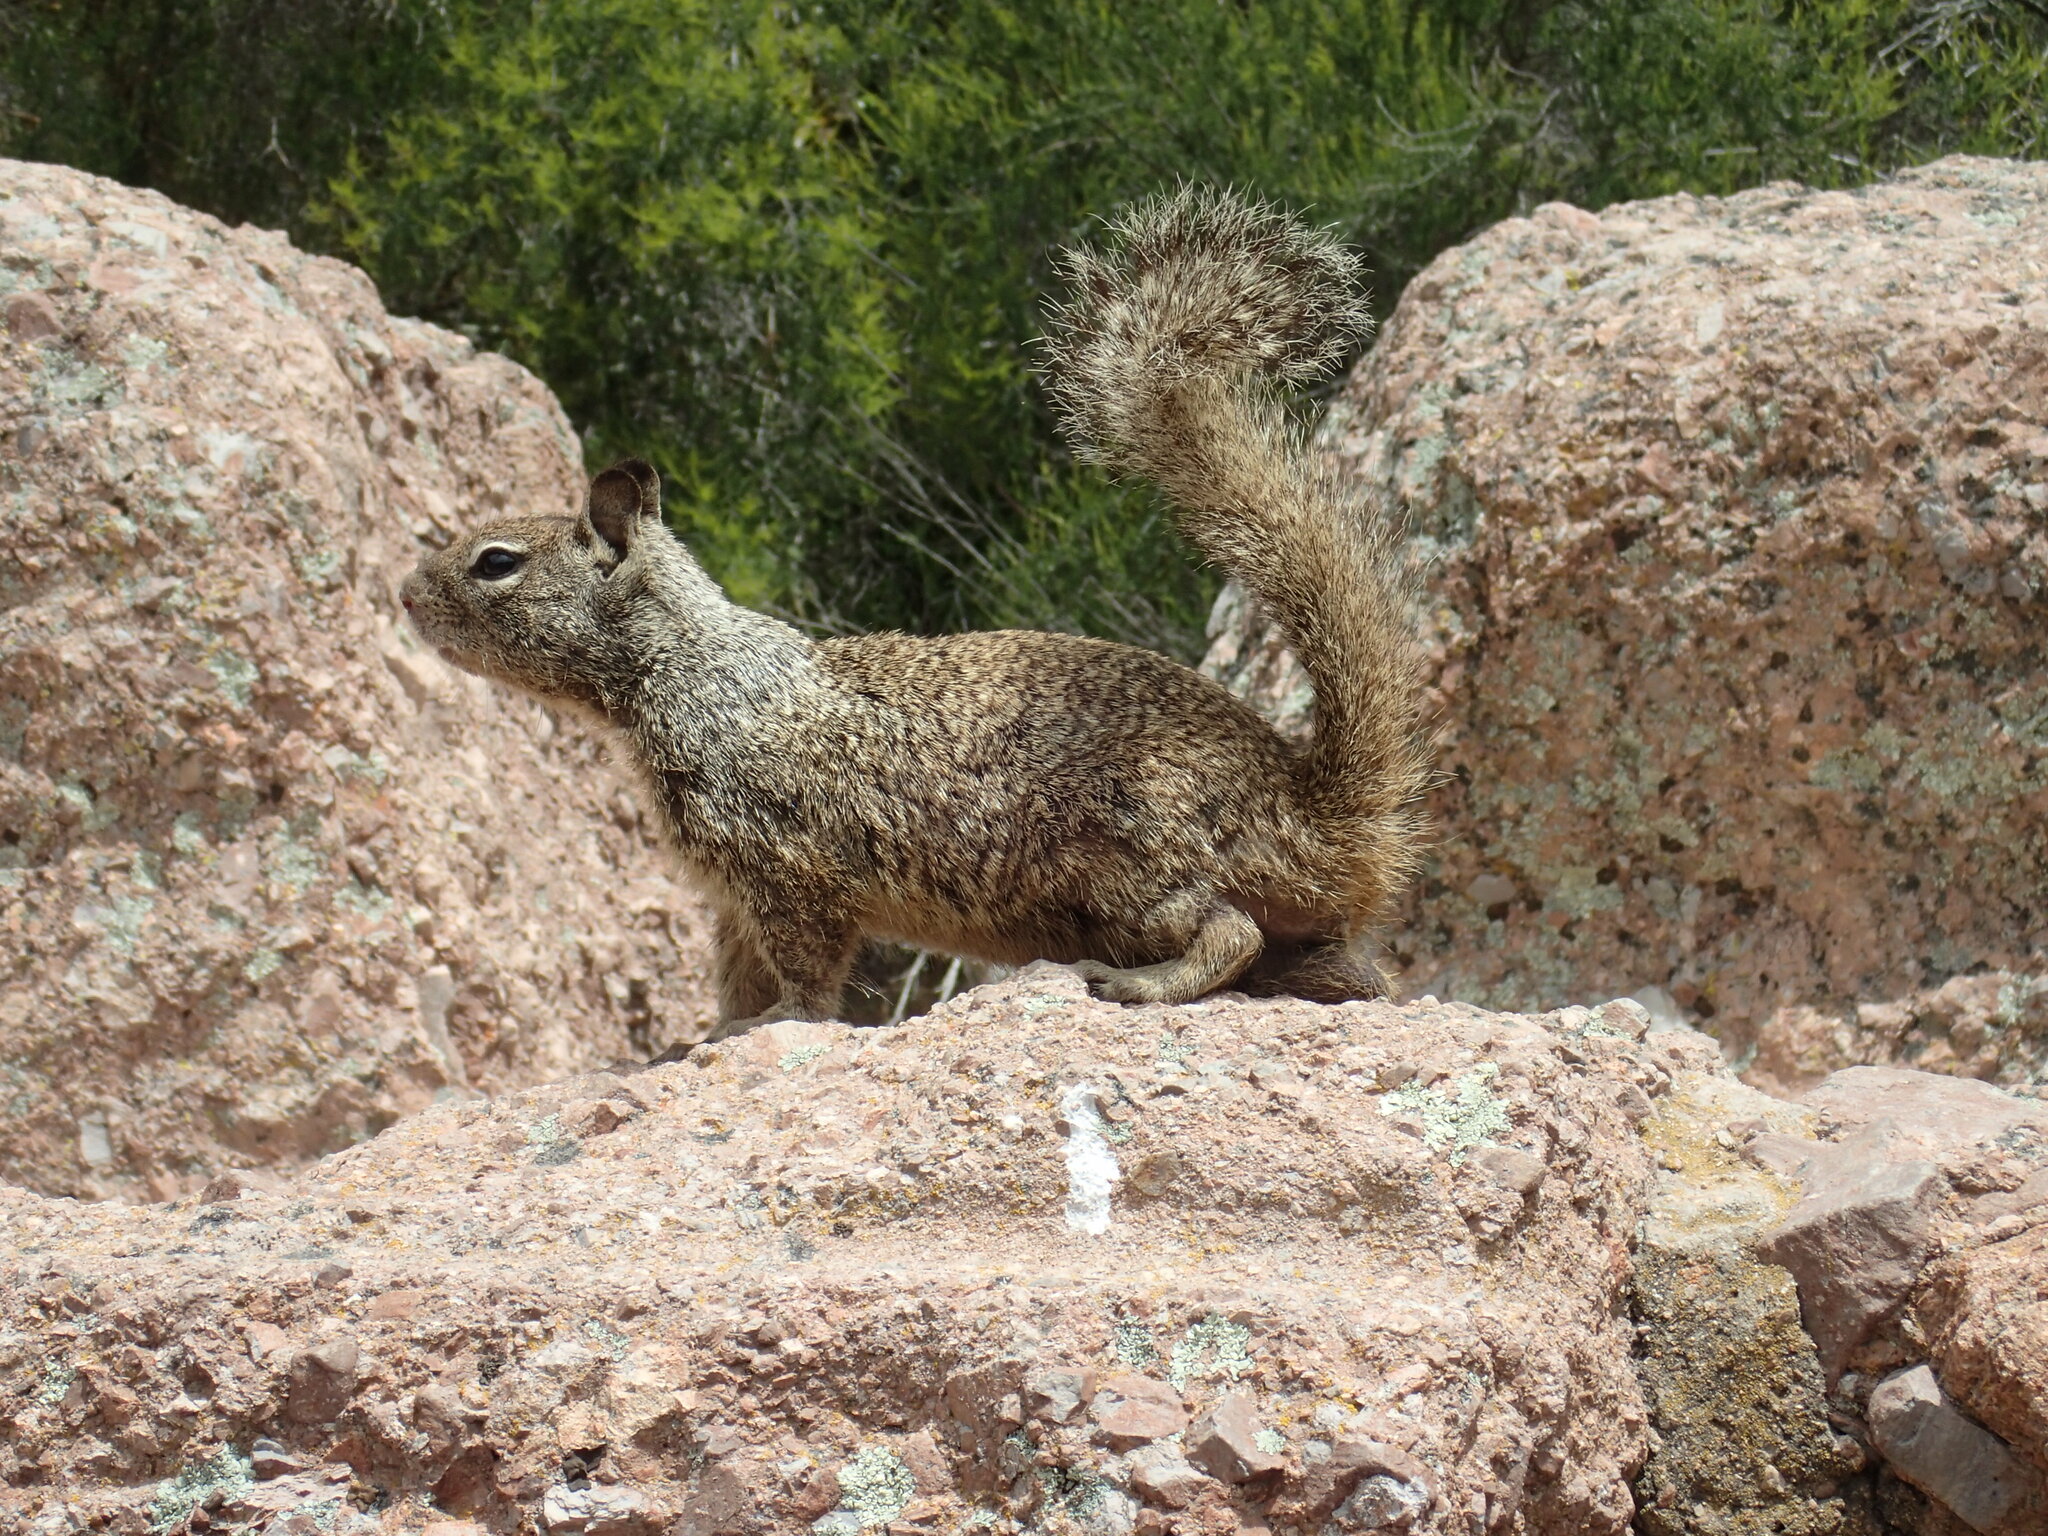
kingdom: Animalia
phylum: Chordata
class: Mammalia
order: Rodentia
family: Sciuridae
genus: Otospermophilus
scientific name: Otospermophilus beecheyi
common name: California ground squirrel
